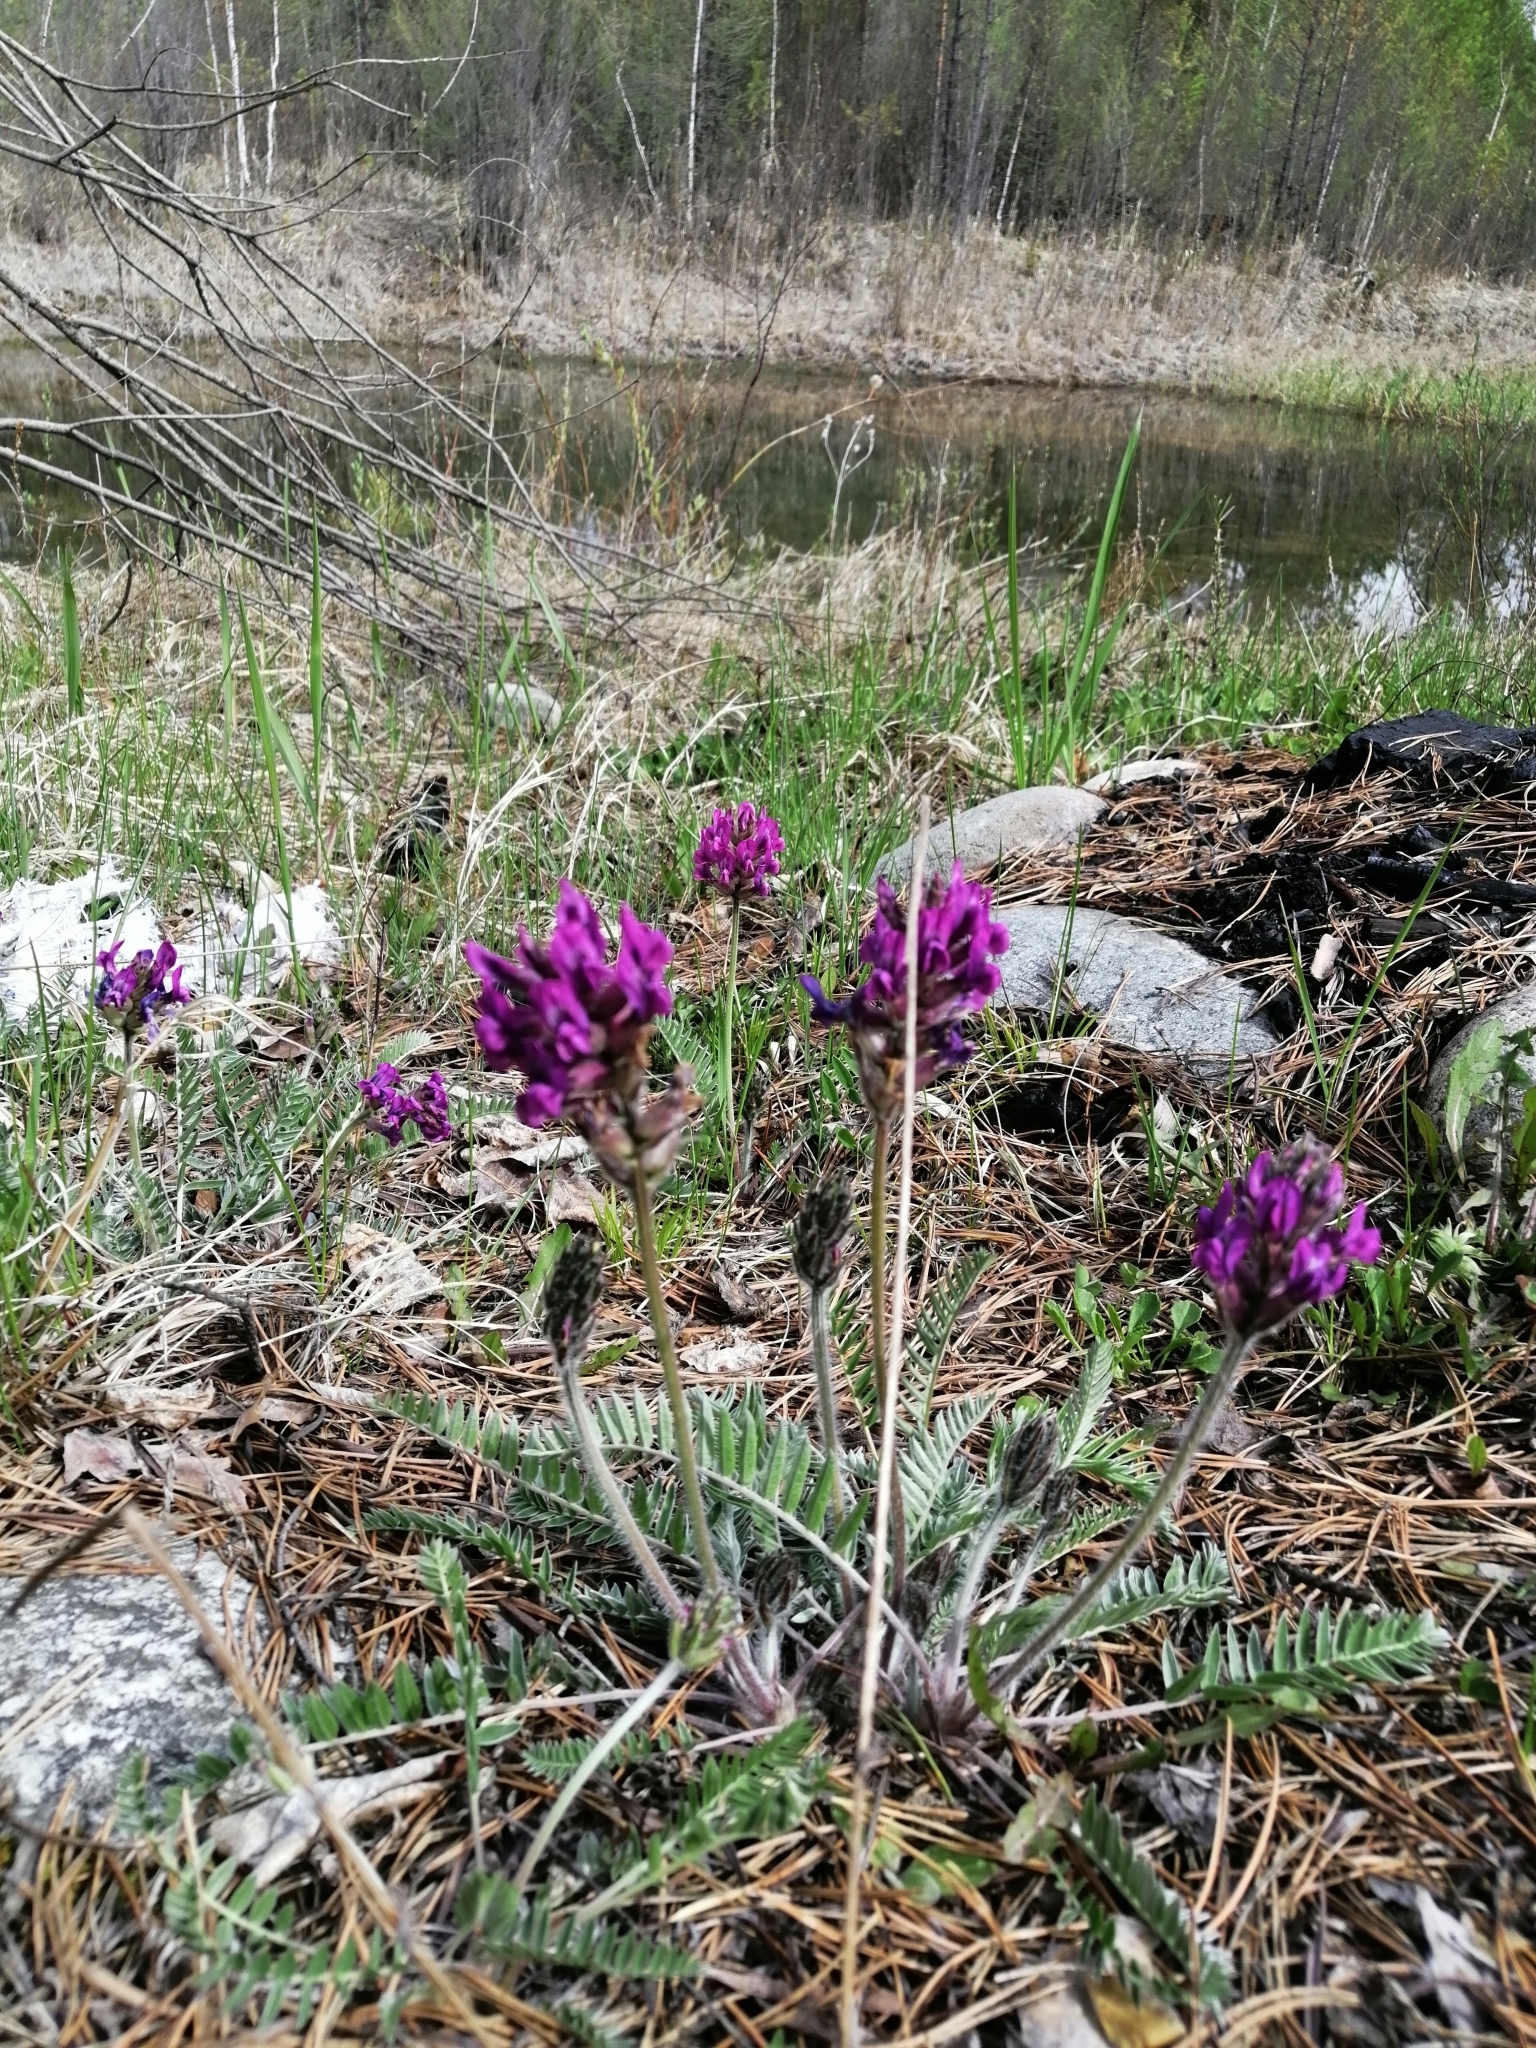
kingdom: Plantae
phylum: Tracheophyta
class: Magnoliopsida
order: Fabales
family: Fabaceae
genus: Oxytropis
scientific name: Oxytropis strobilacea
